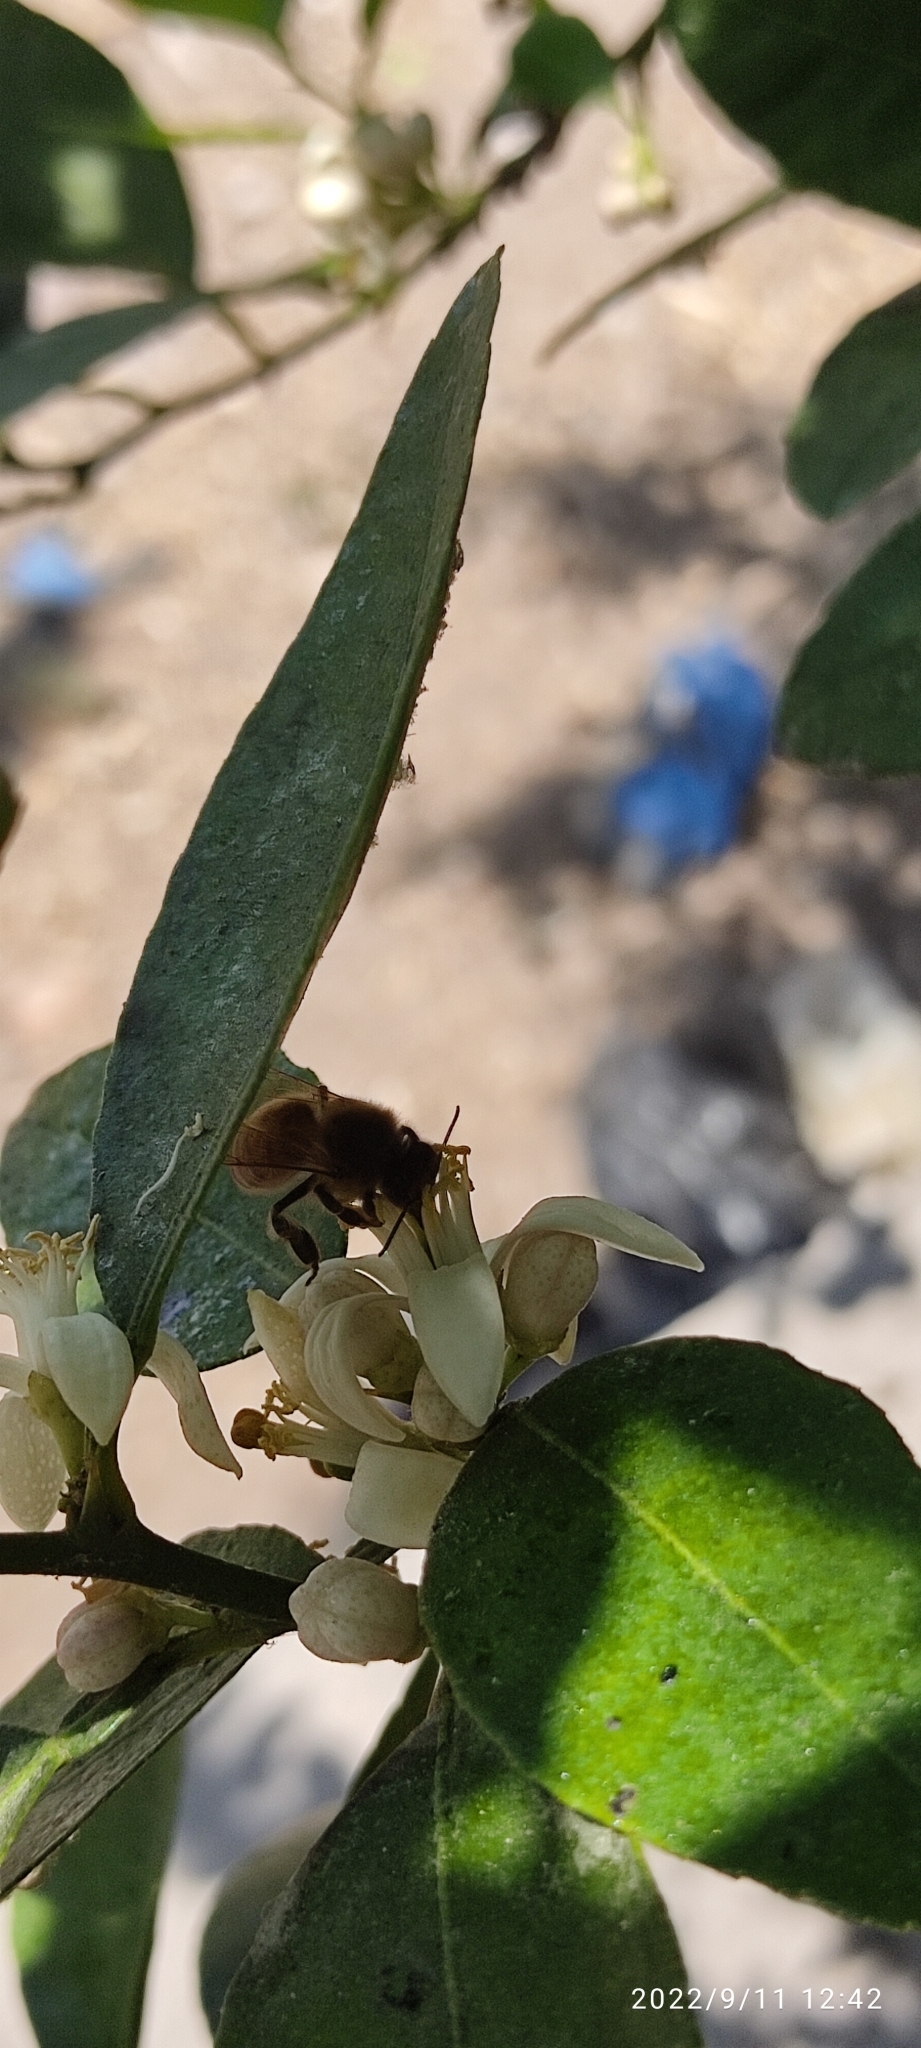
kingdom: Animalia
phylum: Arthropoda
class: Insecta
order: Hymenoptera
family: Apidae
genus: Apis
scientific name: Apis mellifera
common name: Honey bee
